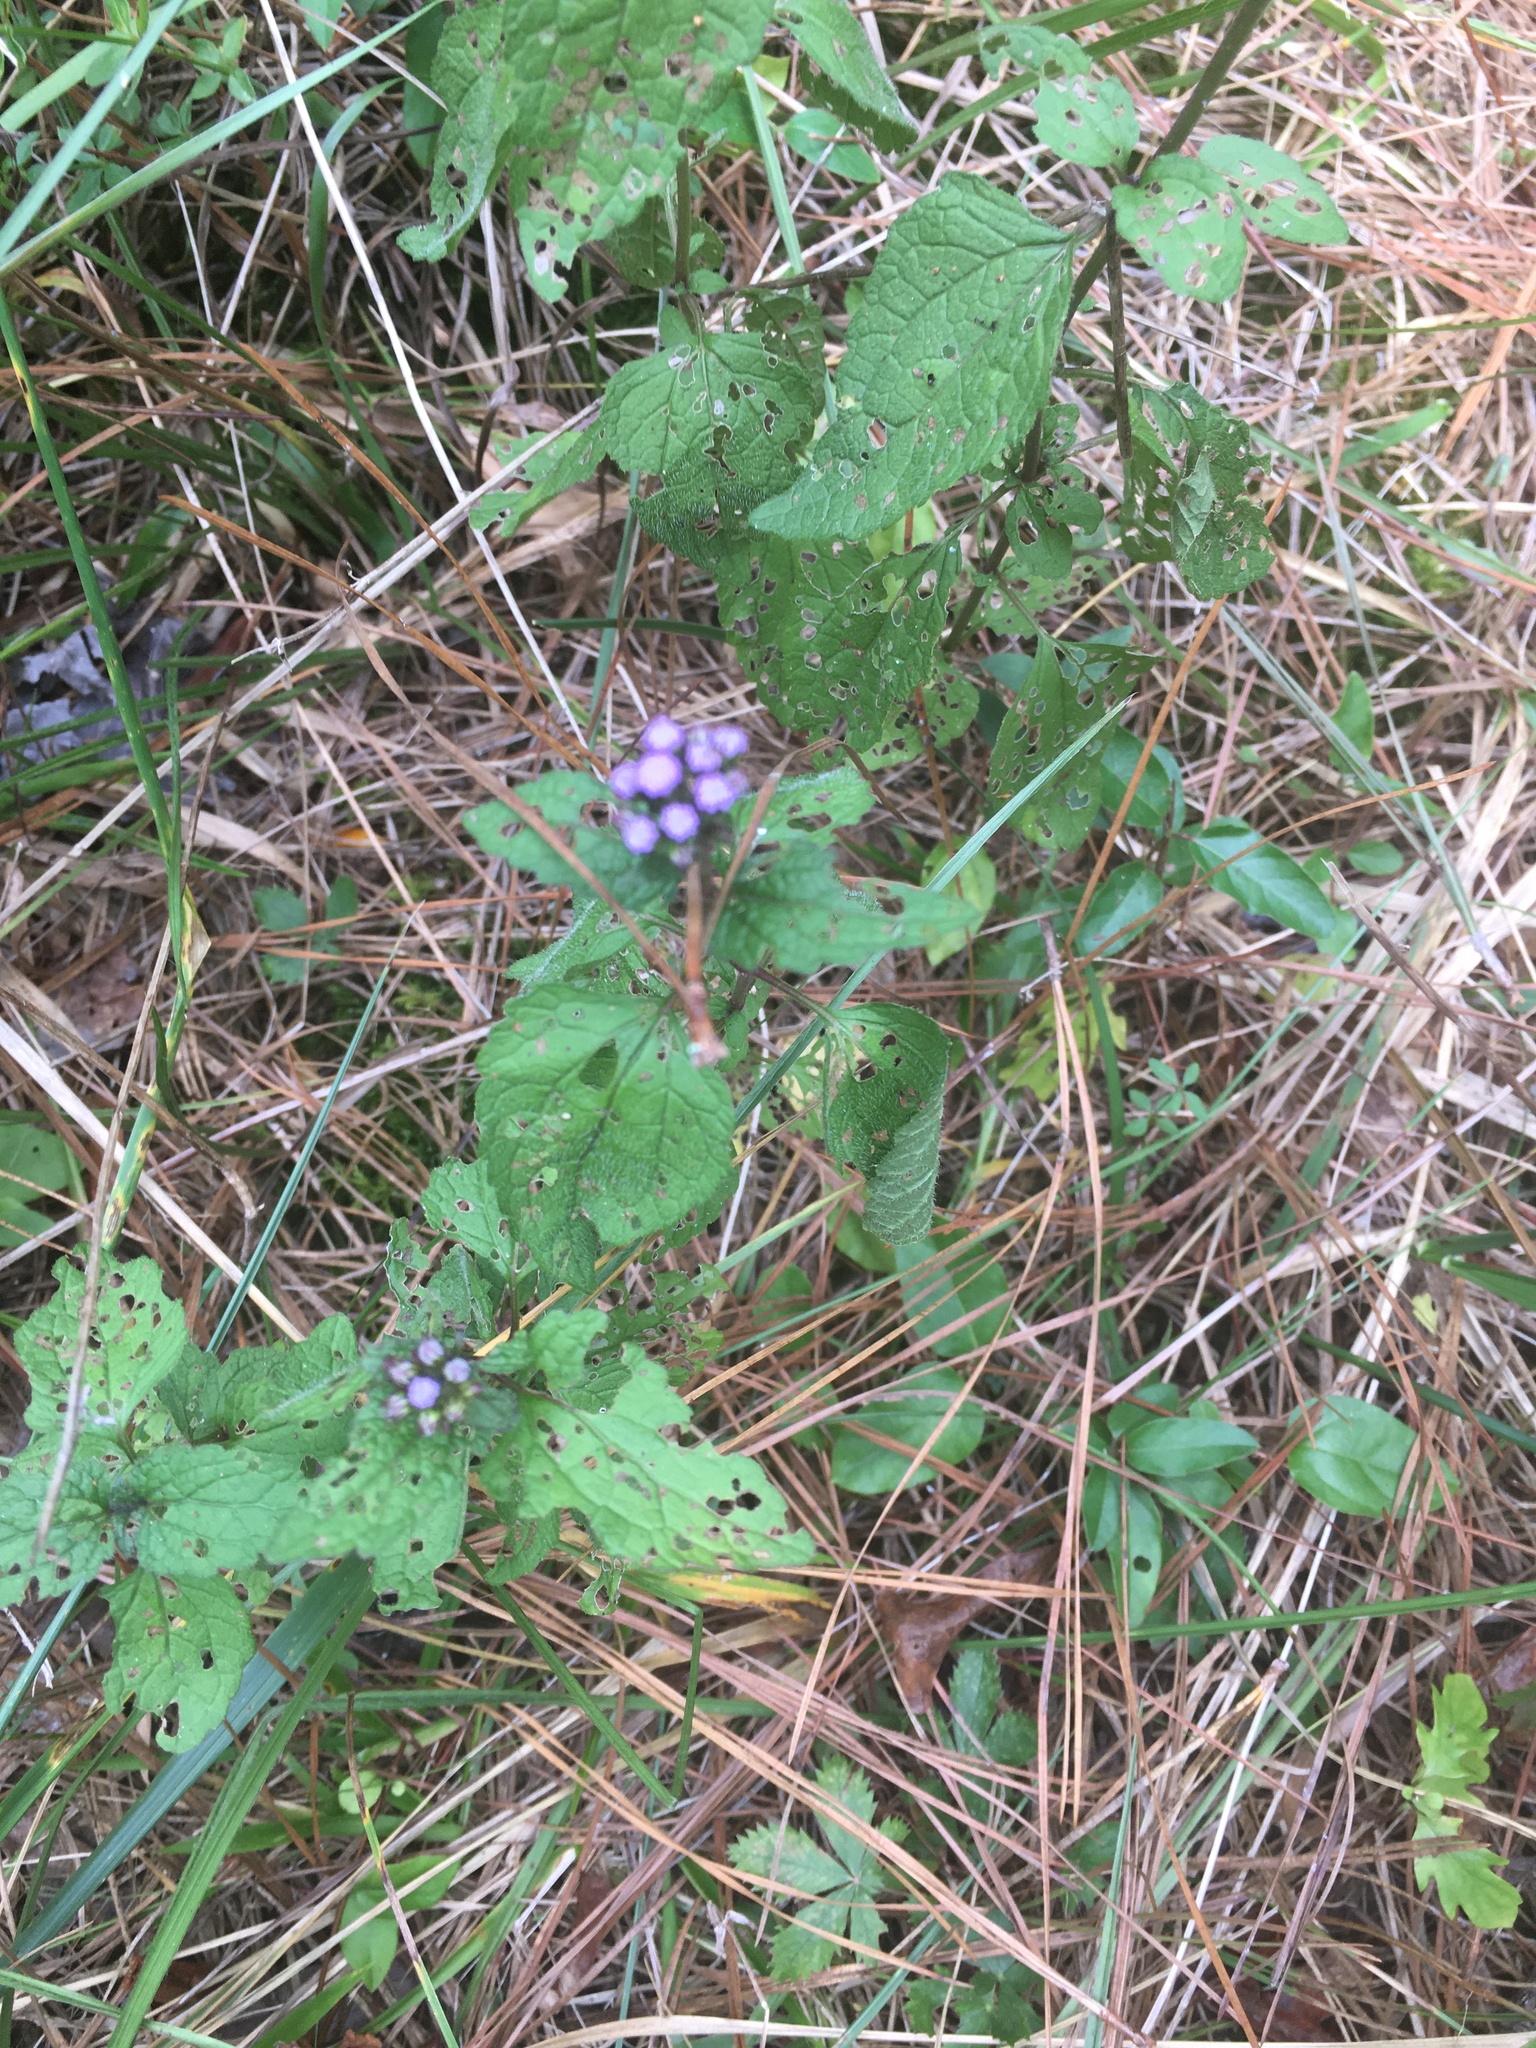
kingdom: Plantae
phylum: Tracheophyta
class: Magnoliopsida
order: Asterales
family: Asteraceae
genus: Conoclinium
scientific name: Conoclinium coelestinum
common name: Blue mistflower
